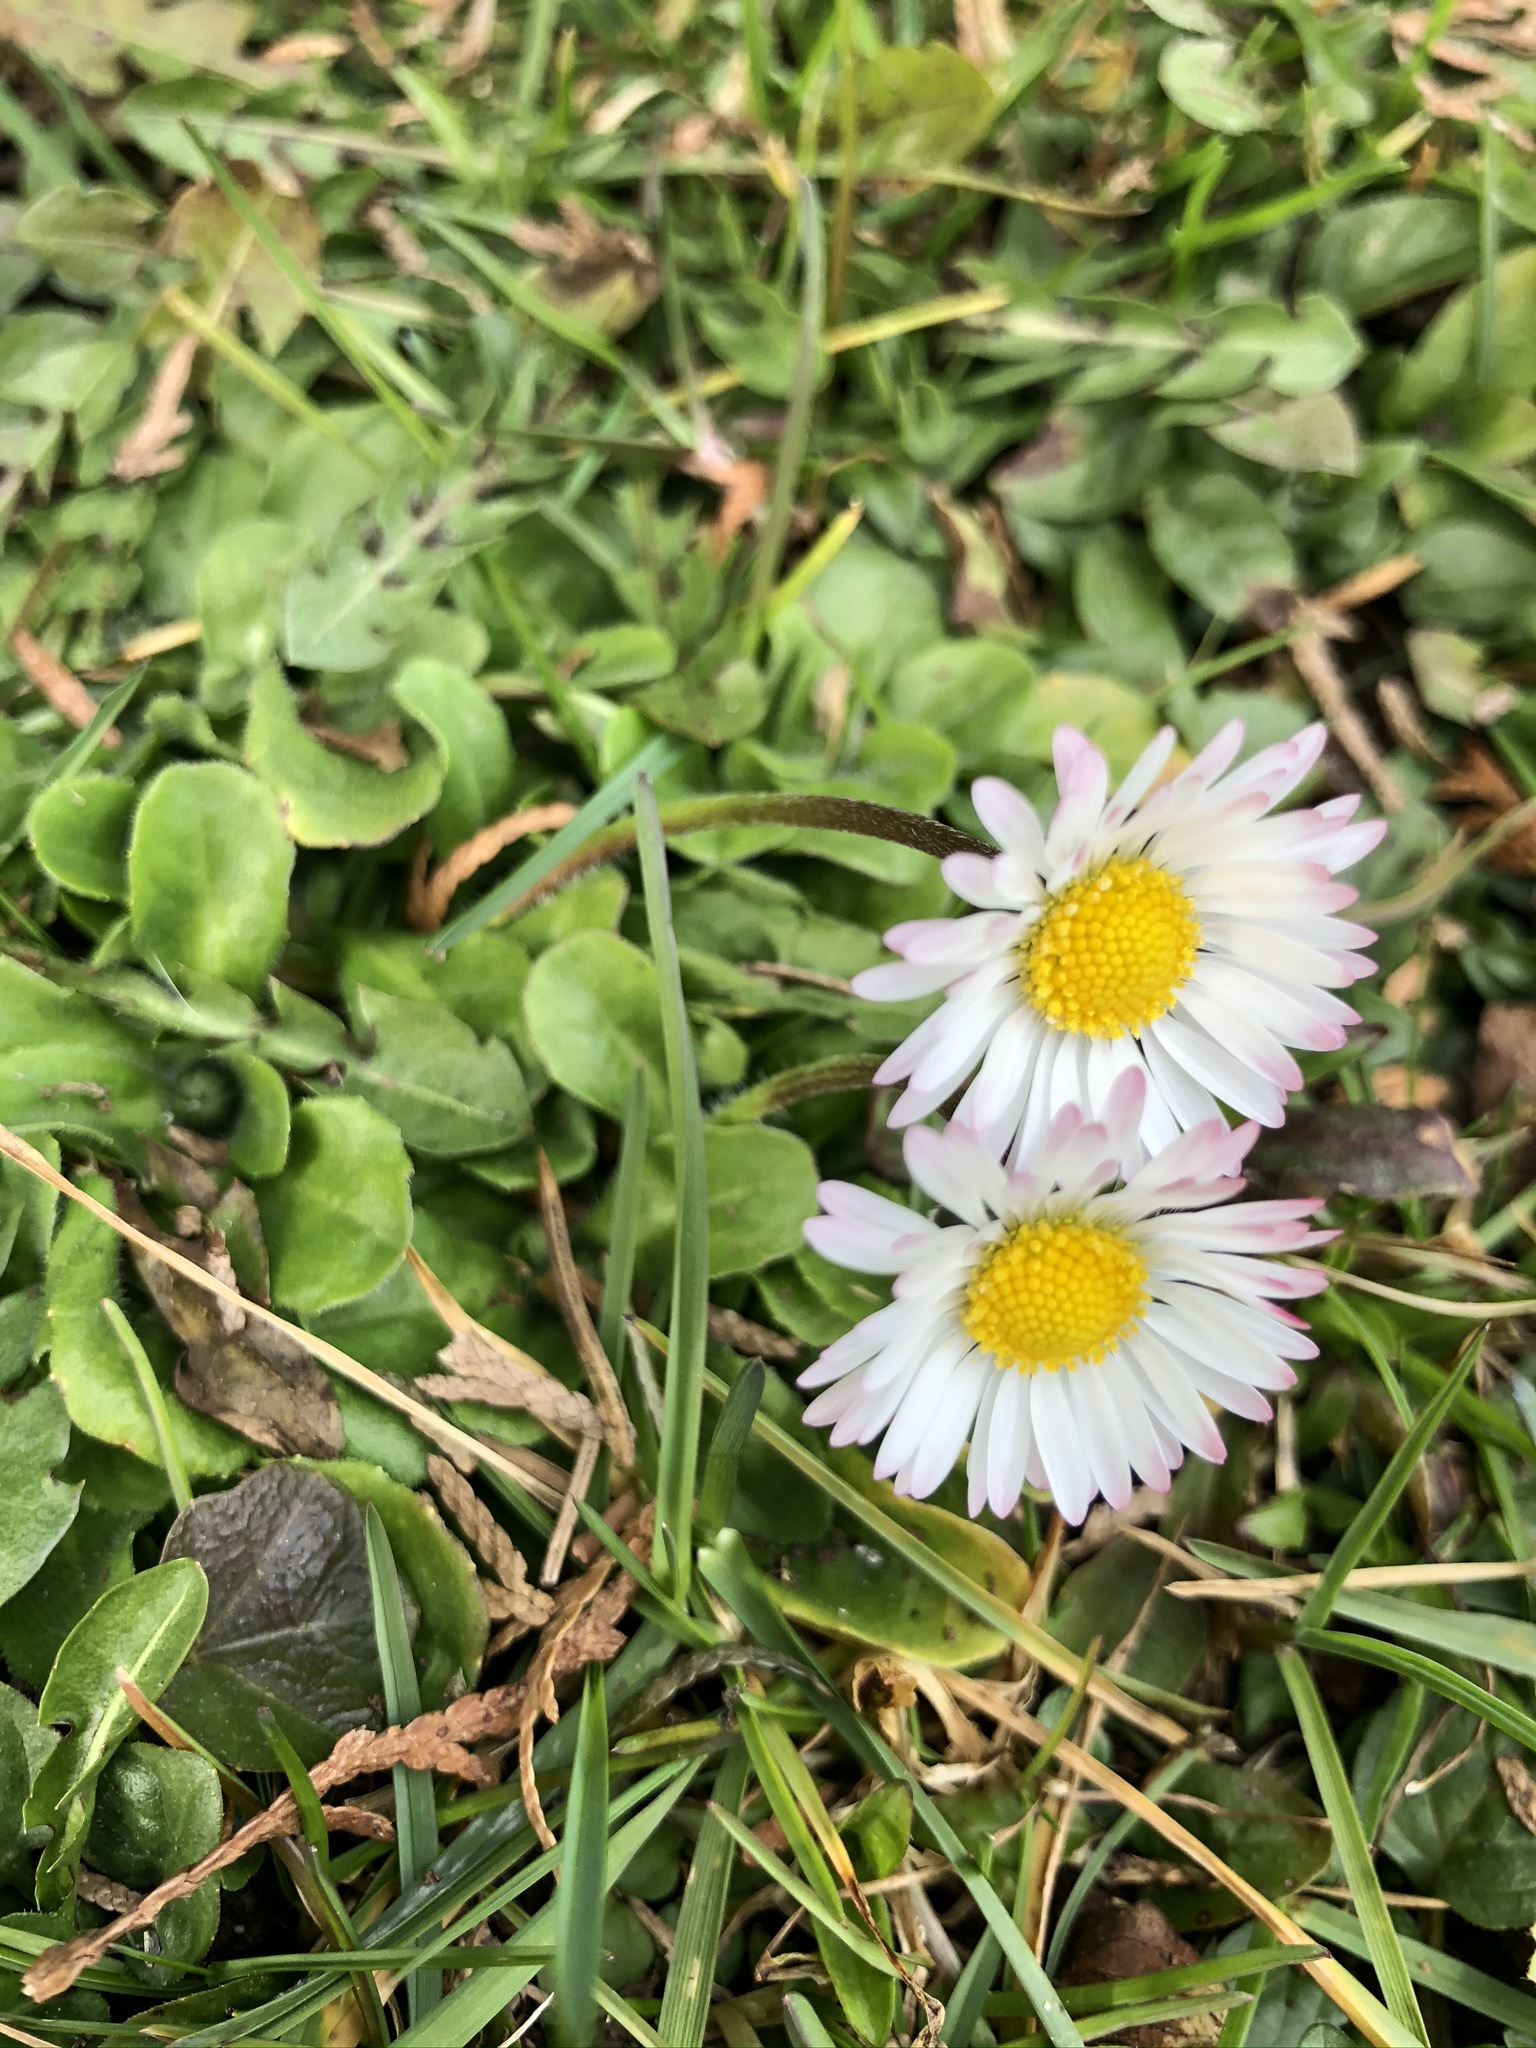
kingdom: Plantae
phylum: Tracheophyta
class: Magnoliopsida
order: Asterales
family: Asteraceae
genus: Bellis
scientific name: Bellis perennis
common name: Lawndaisy
